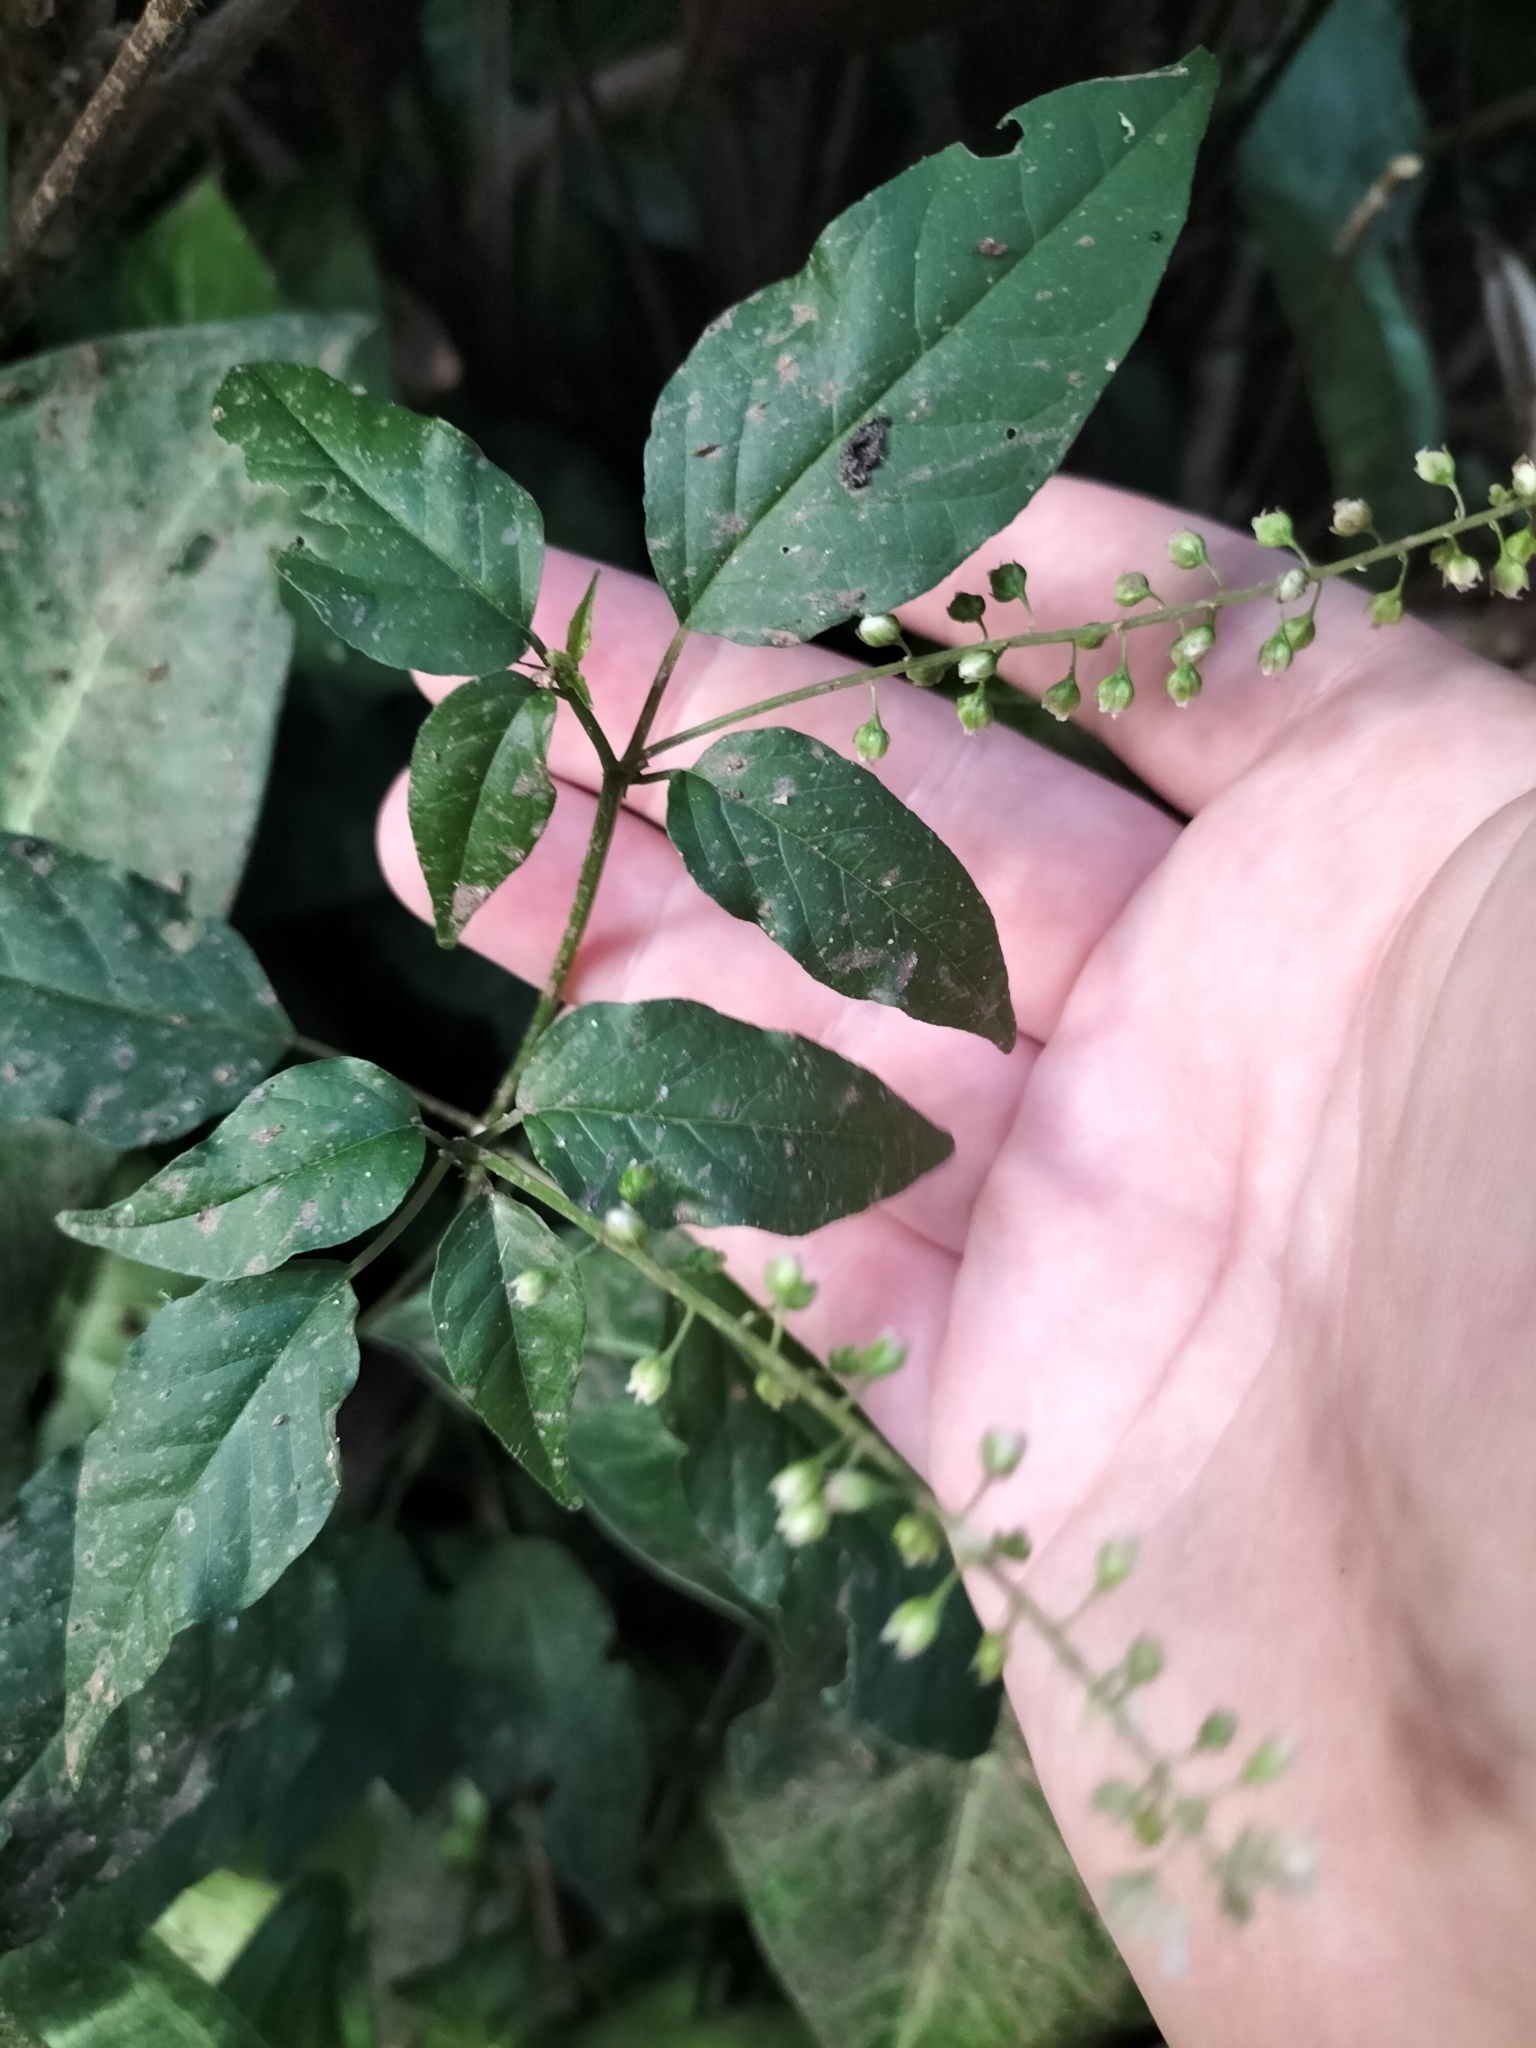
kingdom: Plantae
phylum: Tracheophyta
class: Magnoliopsida
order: Caryophyllales
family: Phytolaccaceae
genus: Rivina
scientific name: Rivina humilis
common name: Rougeplant
